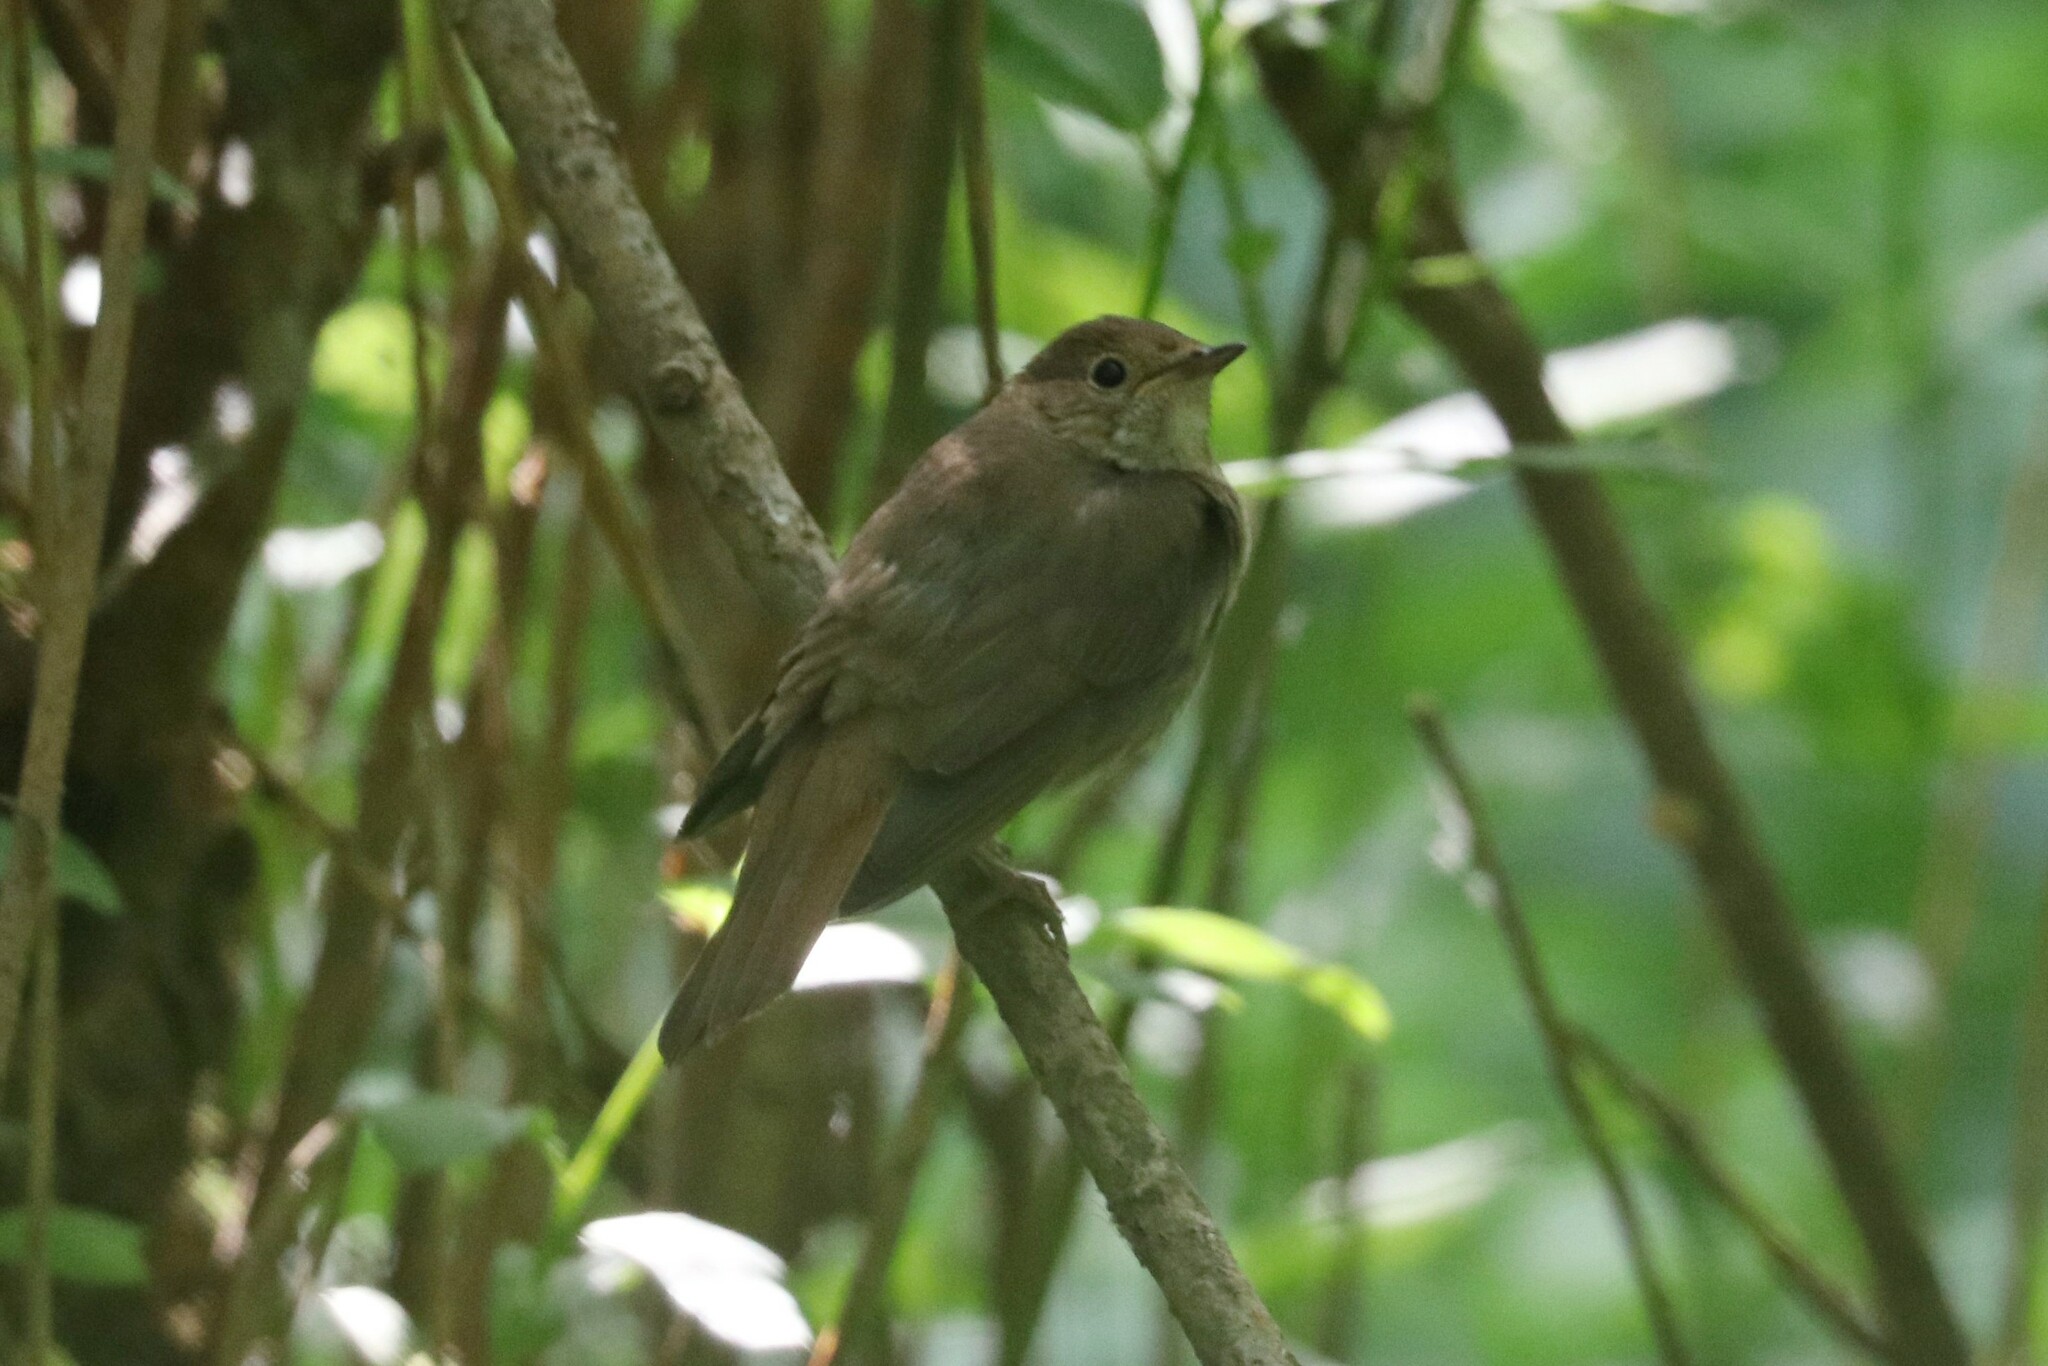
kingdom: Animalia
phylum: Chordata
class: Aves
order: Passeriformes
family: Muscicapidae
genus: Luscinia
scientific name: Luscinia luscinia
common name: Thrush nightingale
